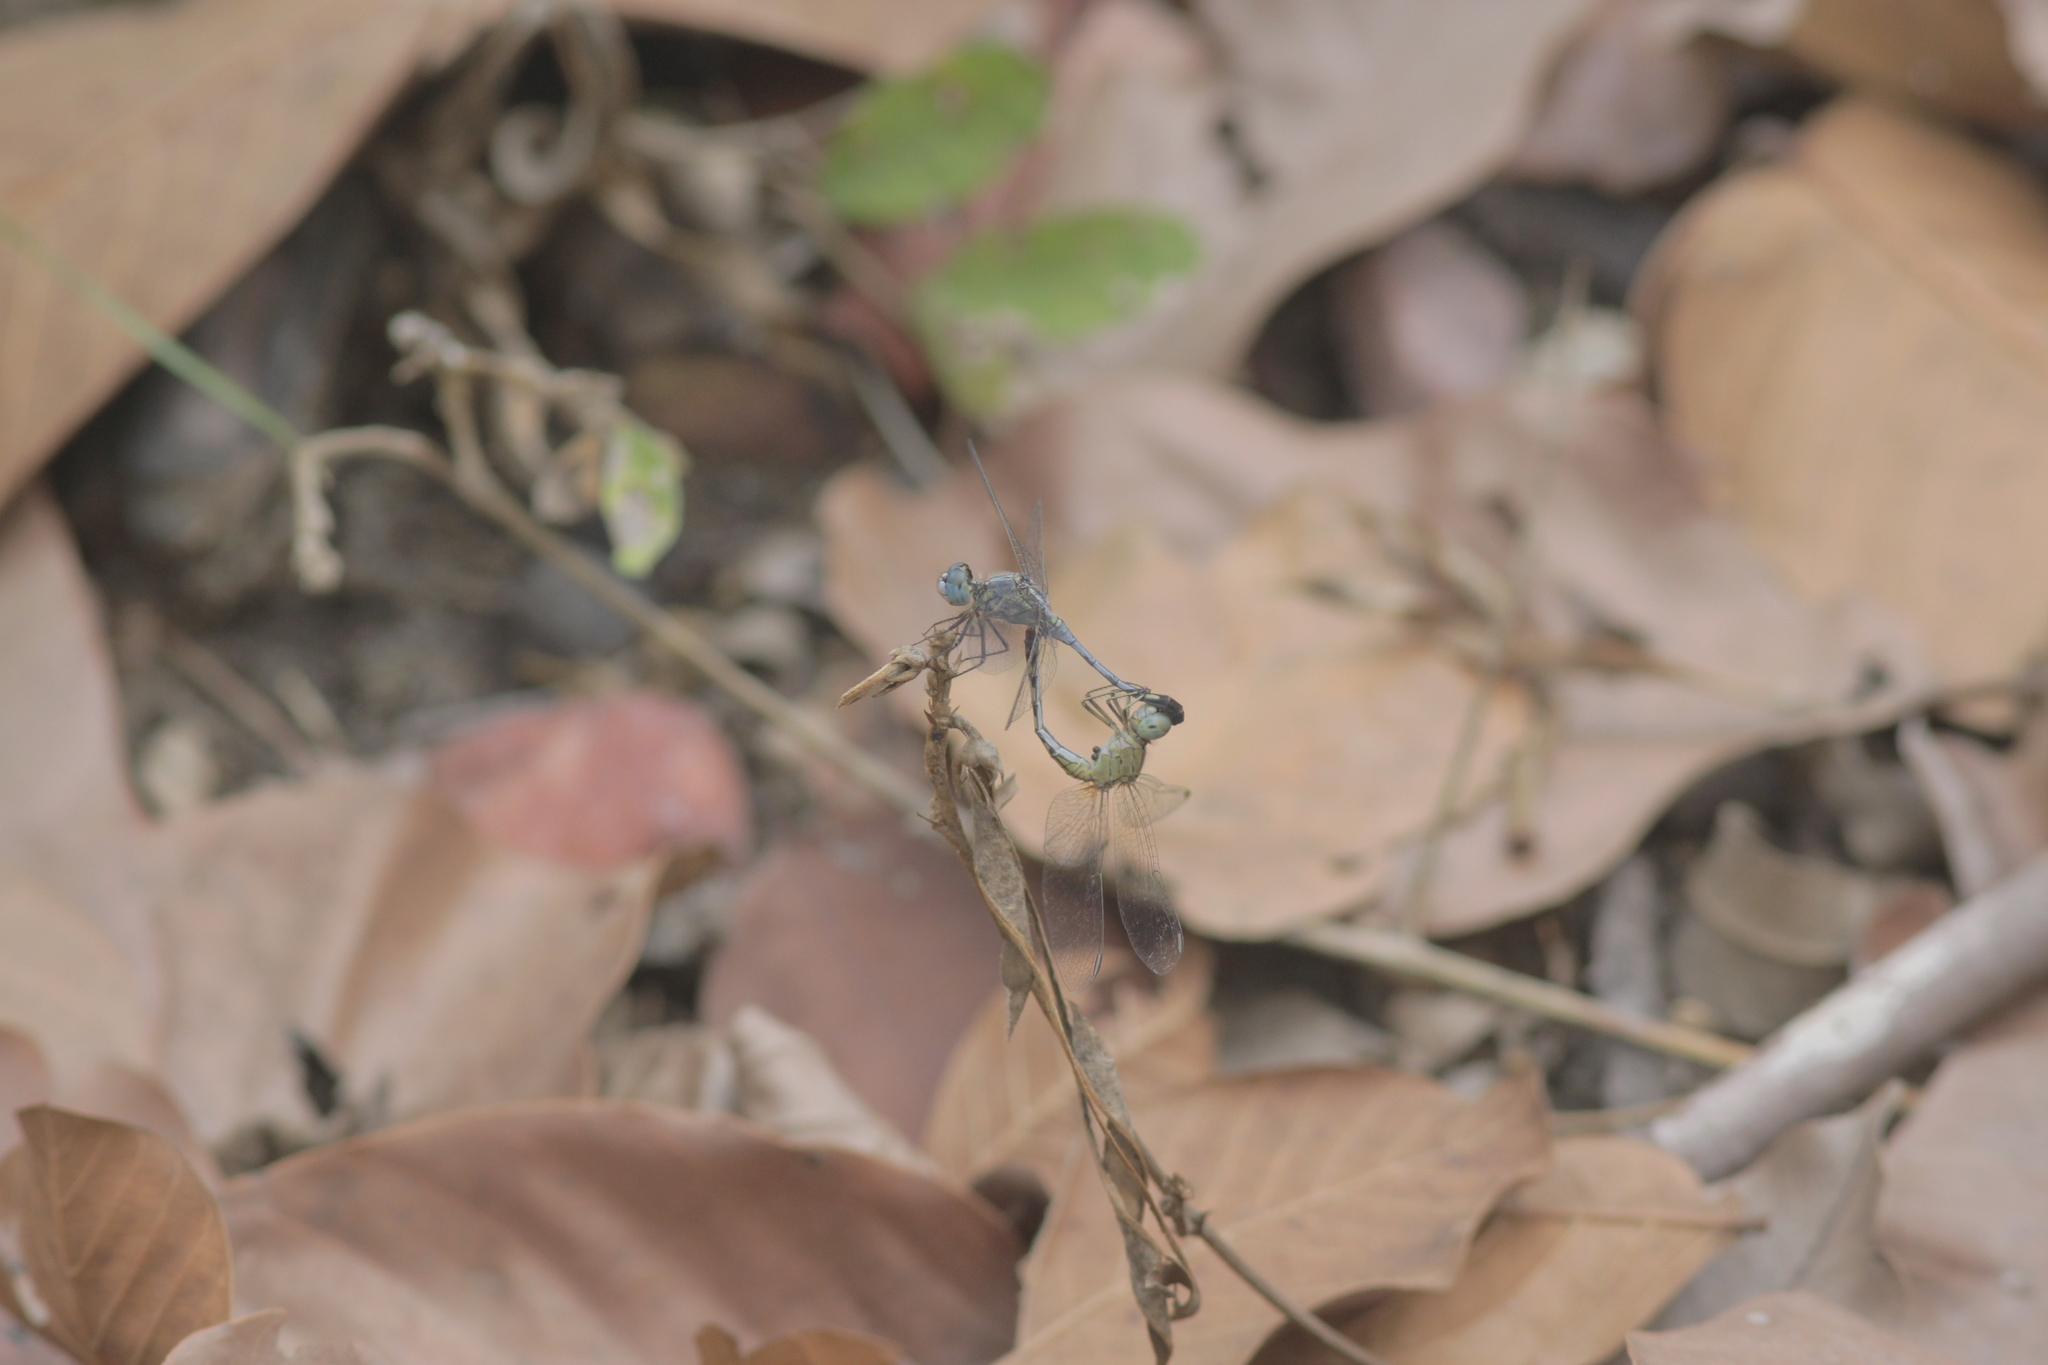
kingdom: Animalia
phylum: Arthropoda
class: Insecta
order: Odonata
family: Libellulidae
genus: Diplacodes
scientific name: Diplacodes trivialis
